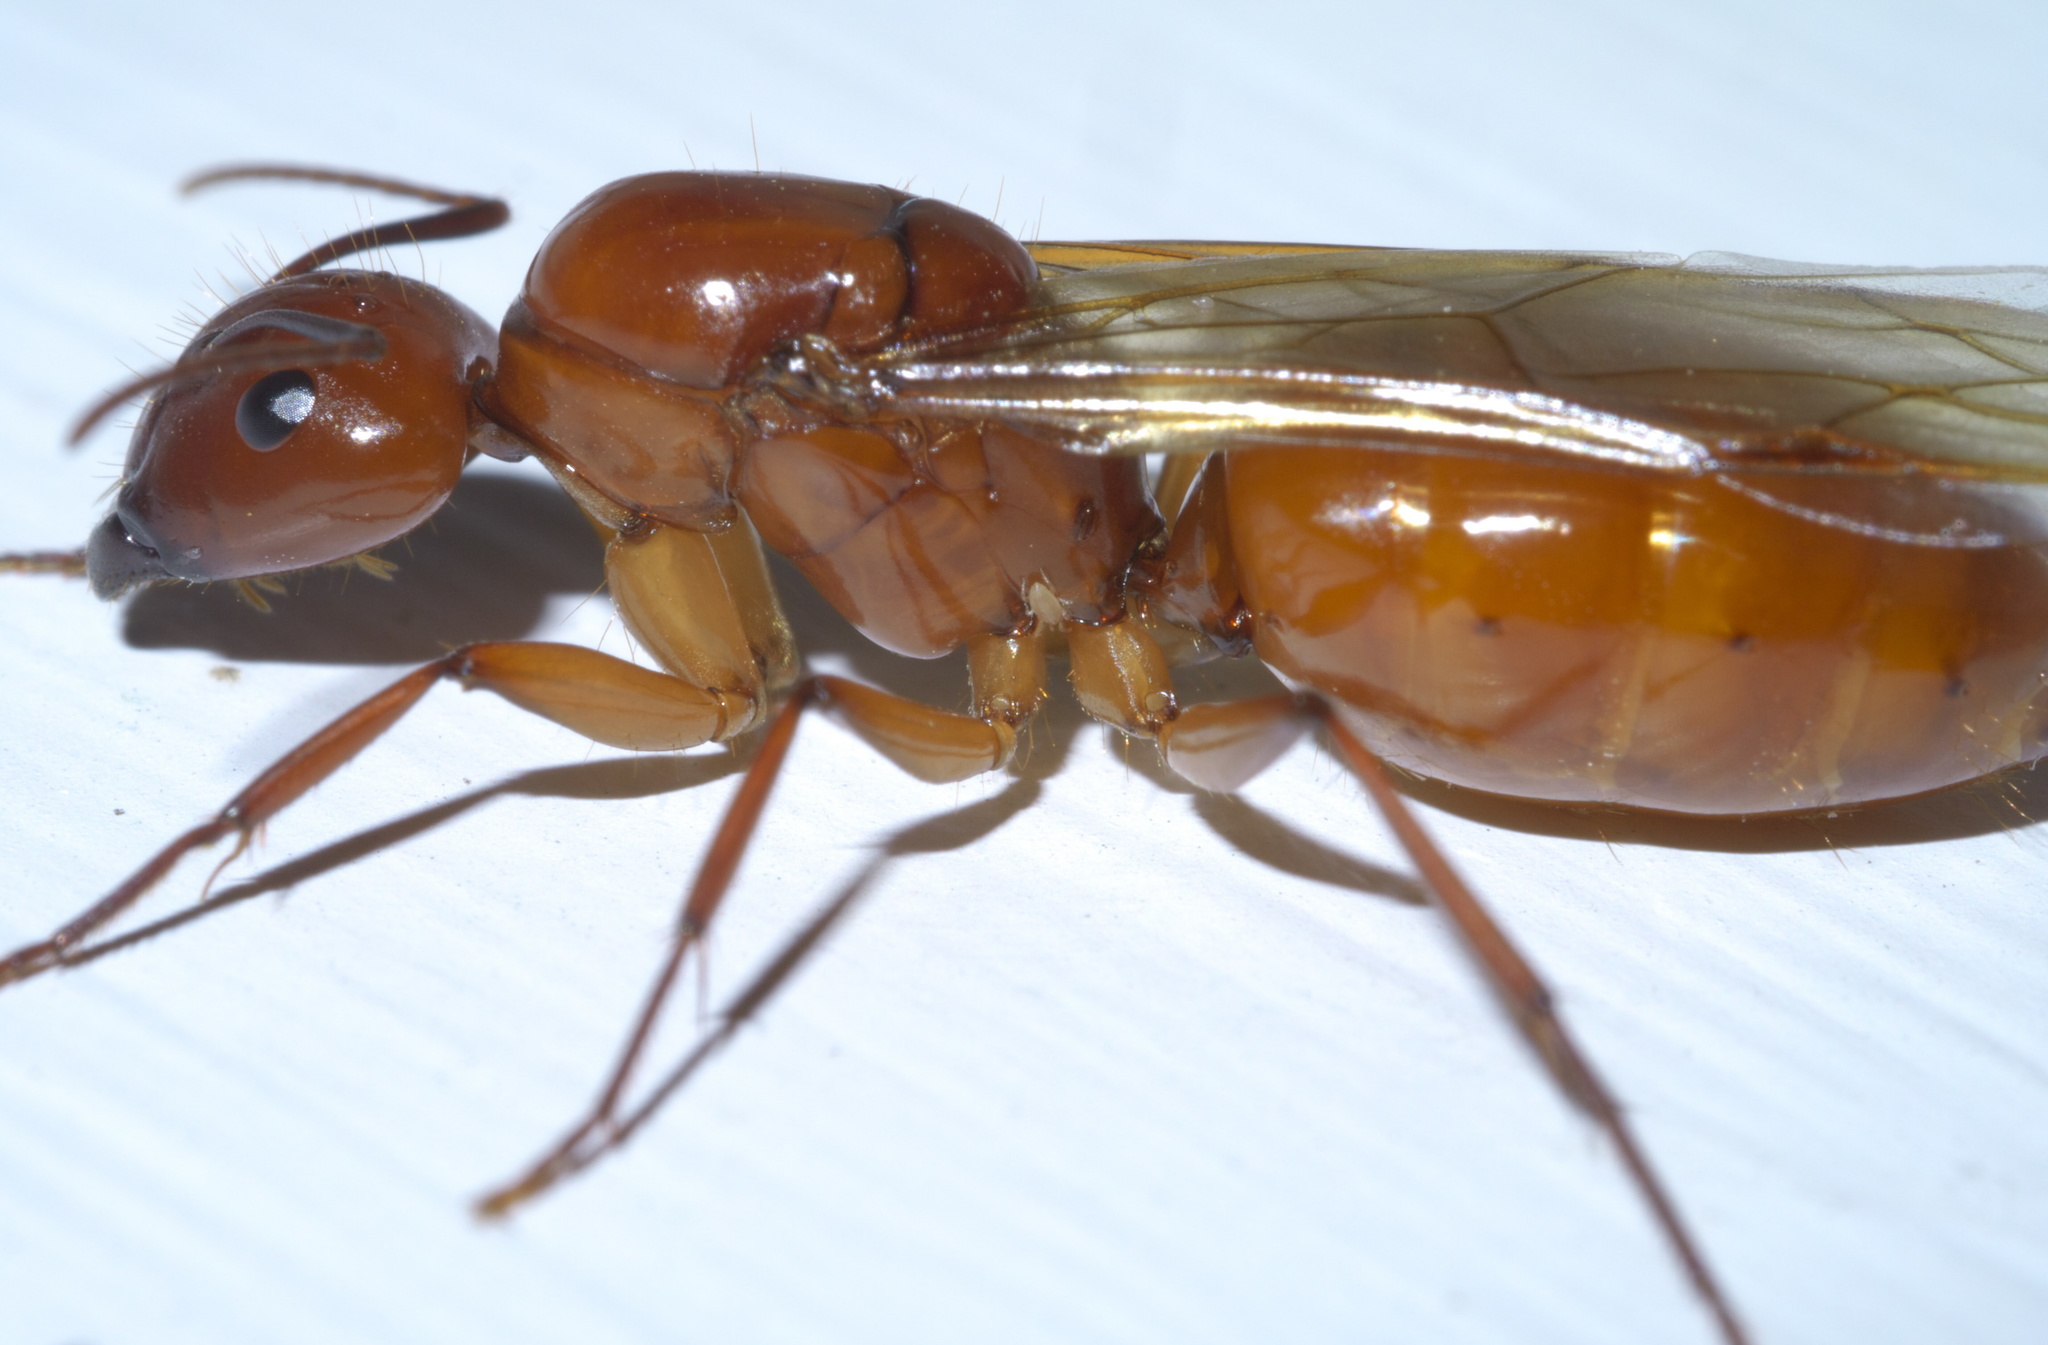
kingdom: Animalia
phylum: Arthropoda
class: Insecta
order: Hymenoptera
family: Formicidae
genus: Camponotus
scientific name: Camponotus castaneus
